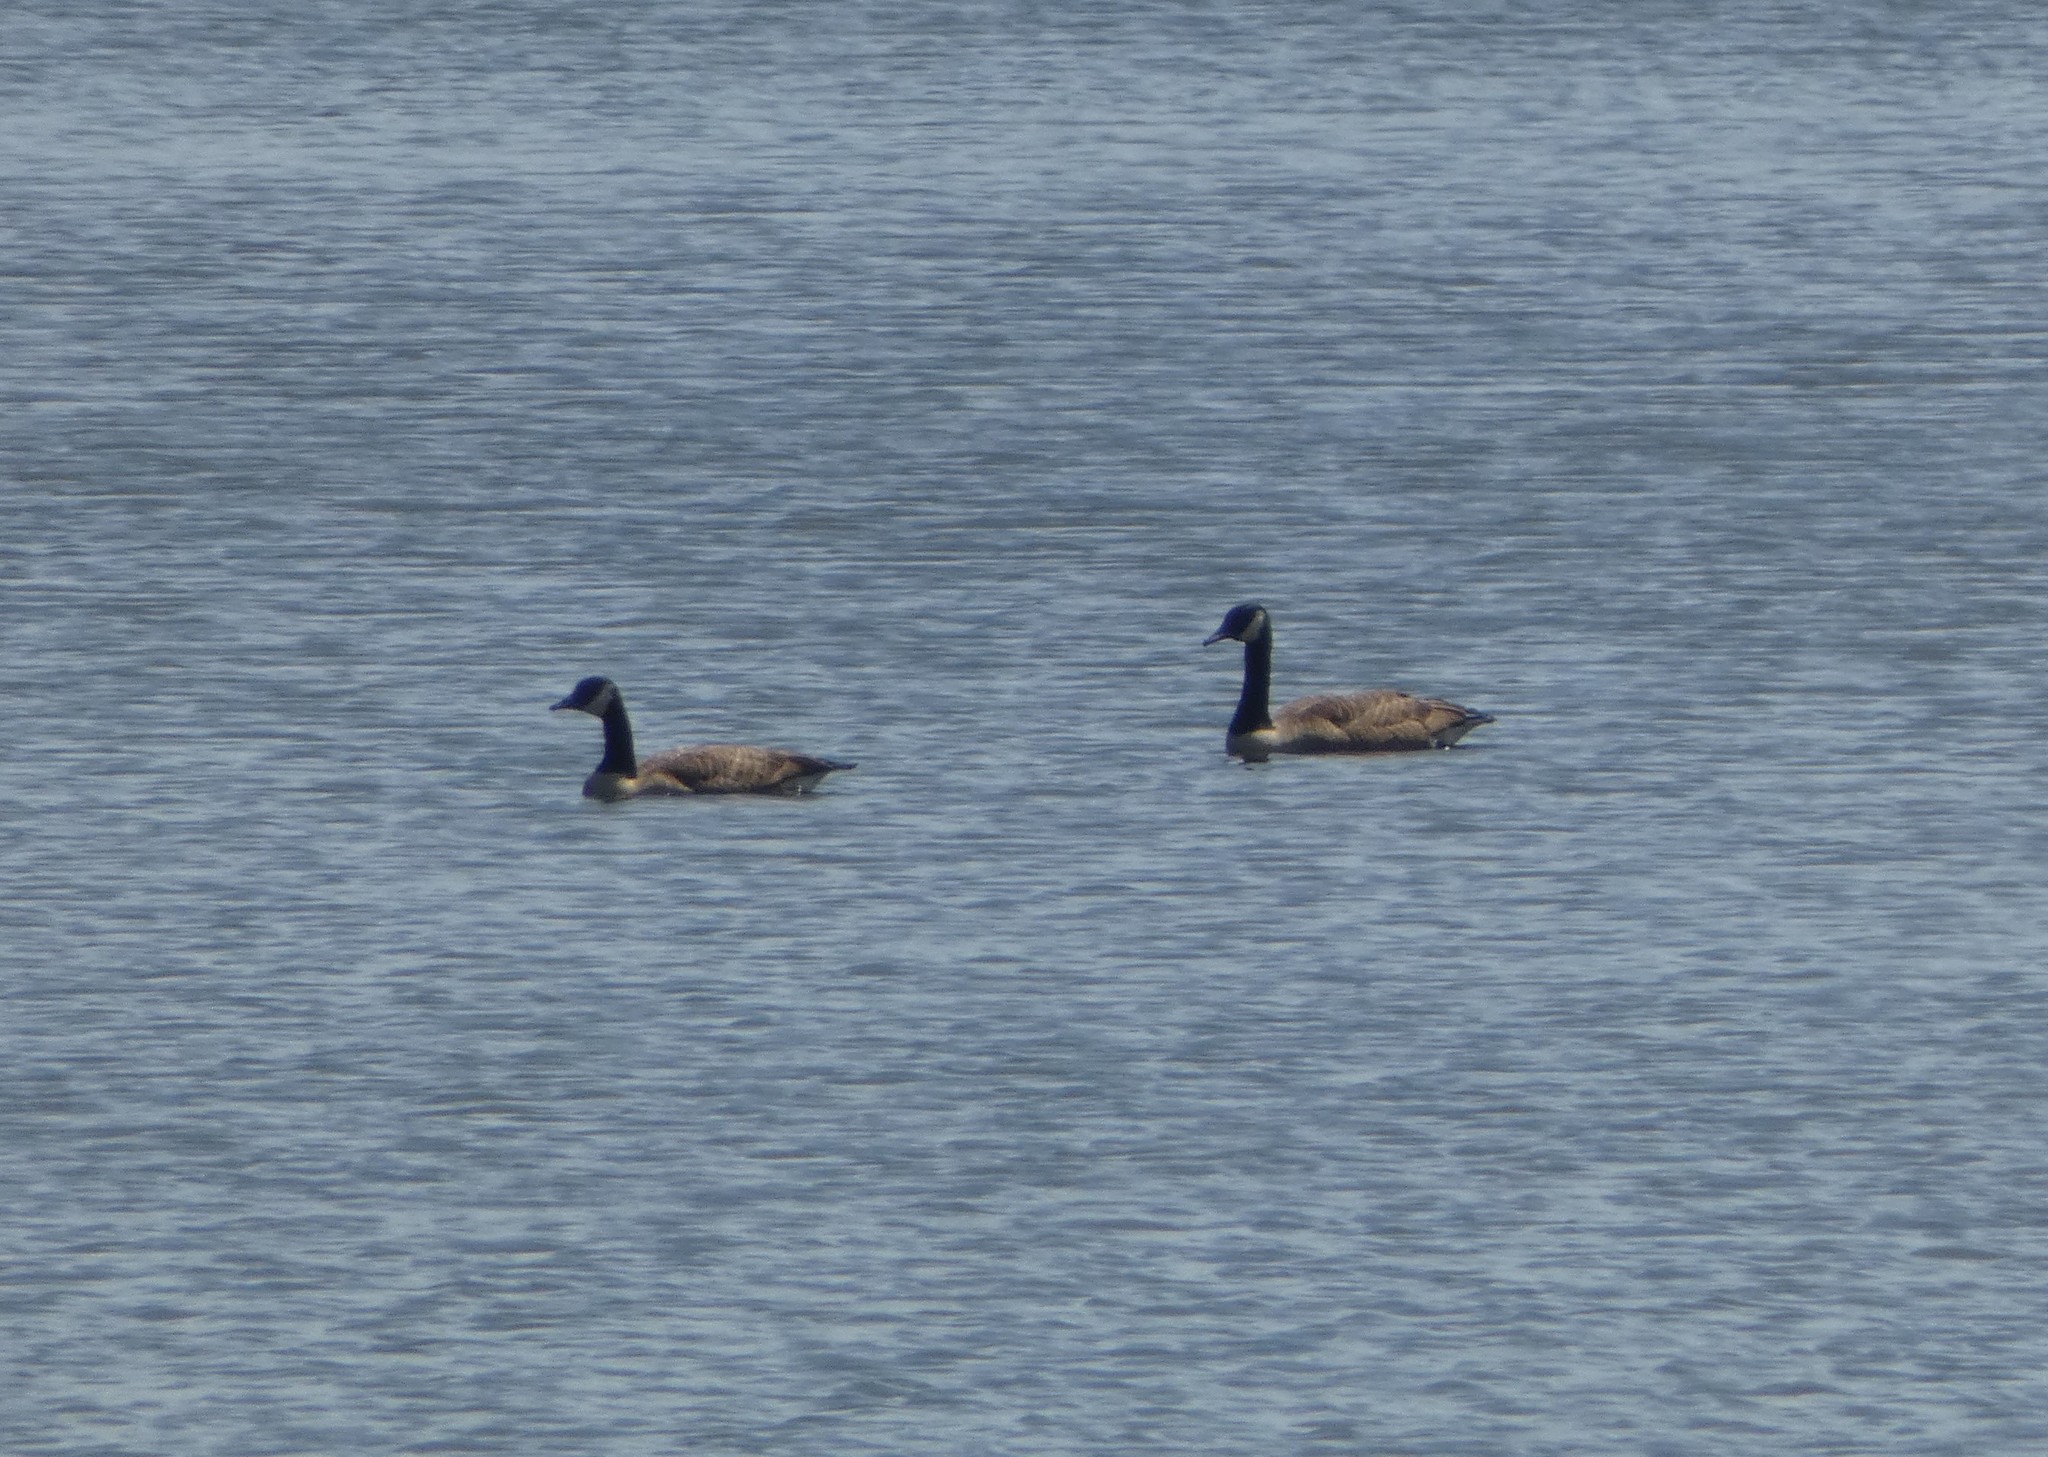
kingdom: Animalia
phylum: Chordata
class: Aves
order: Anseriformes
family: Anatidae
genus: Branta
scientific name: Branta canadensis
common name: Canada goose
